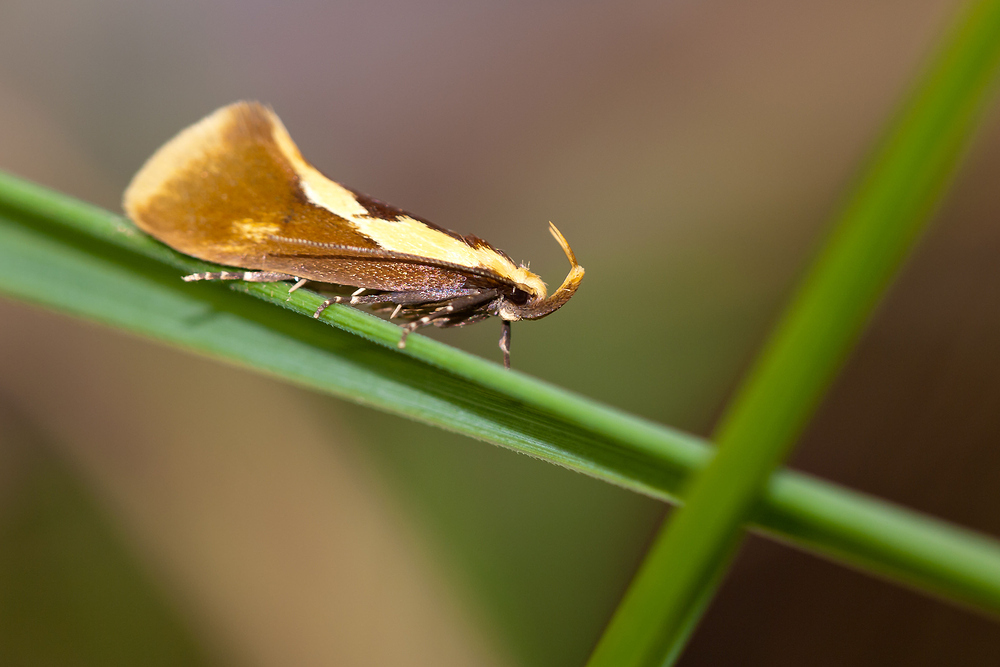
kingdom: Animalia
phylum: Arthropoda
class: Insecta
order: Lepidoptera
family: Oecophoridae
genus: Harpella
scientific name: Harpella forficella
